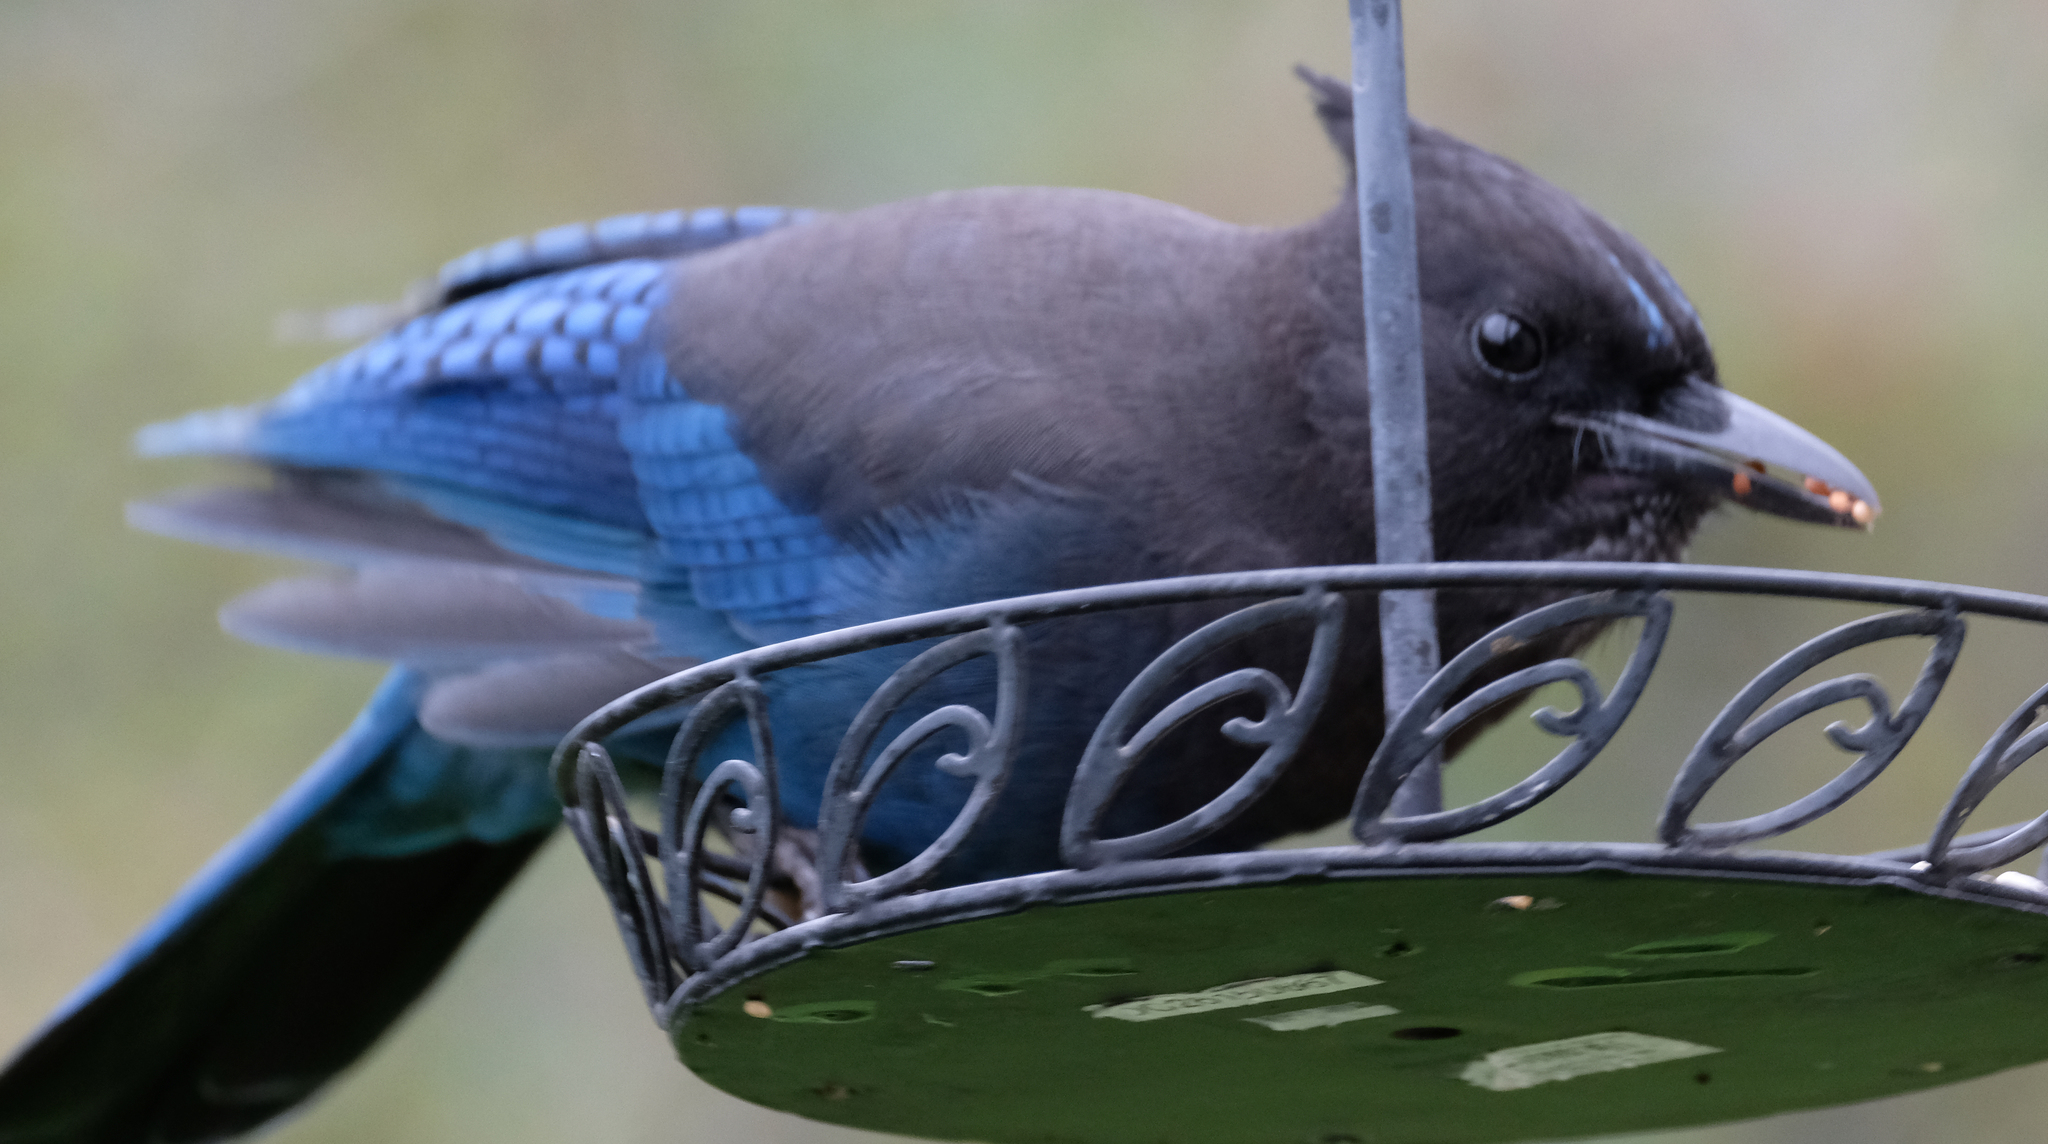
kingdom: Animalia
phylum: Chordata
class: Aves
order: Passeriformes
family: Corvidae
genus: Cyanocitta
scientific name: Cyanocitta stelleri
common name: Steller's jay
